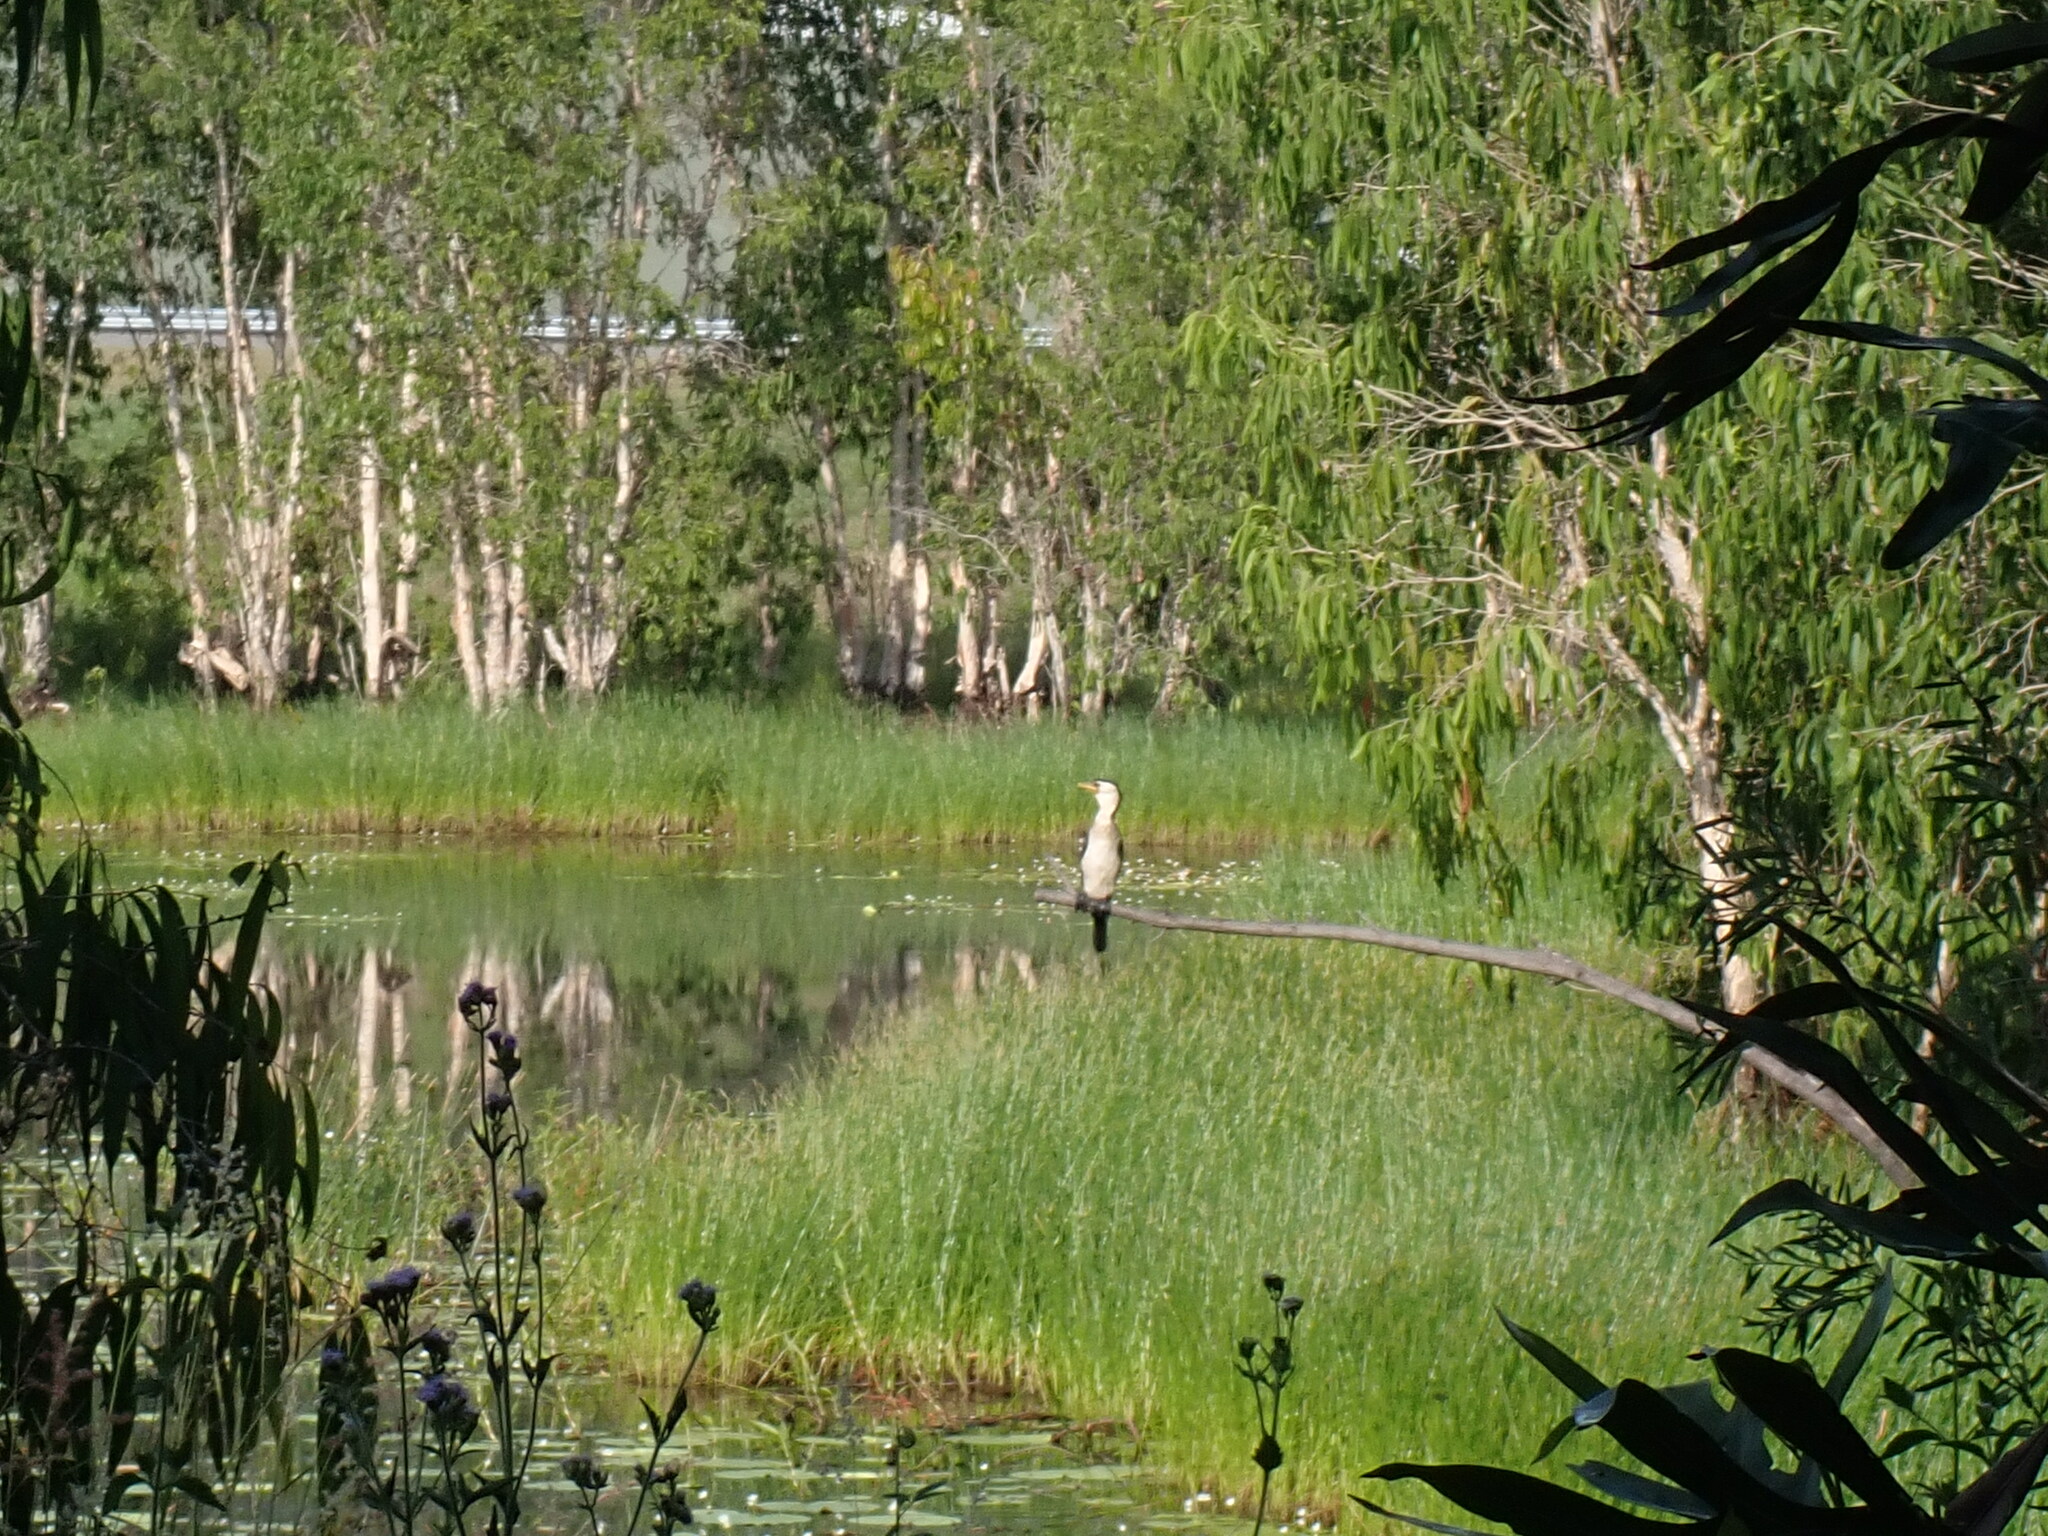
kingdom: Animalia
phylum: Chordata
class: Aves
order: Suliformes
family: Phalacrocoracidae
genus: Microcarbo
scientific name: Microcarbo melanoleucos
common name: Little pied cormorant
